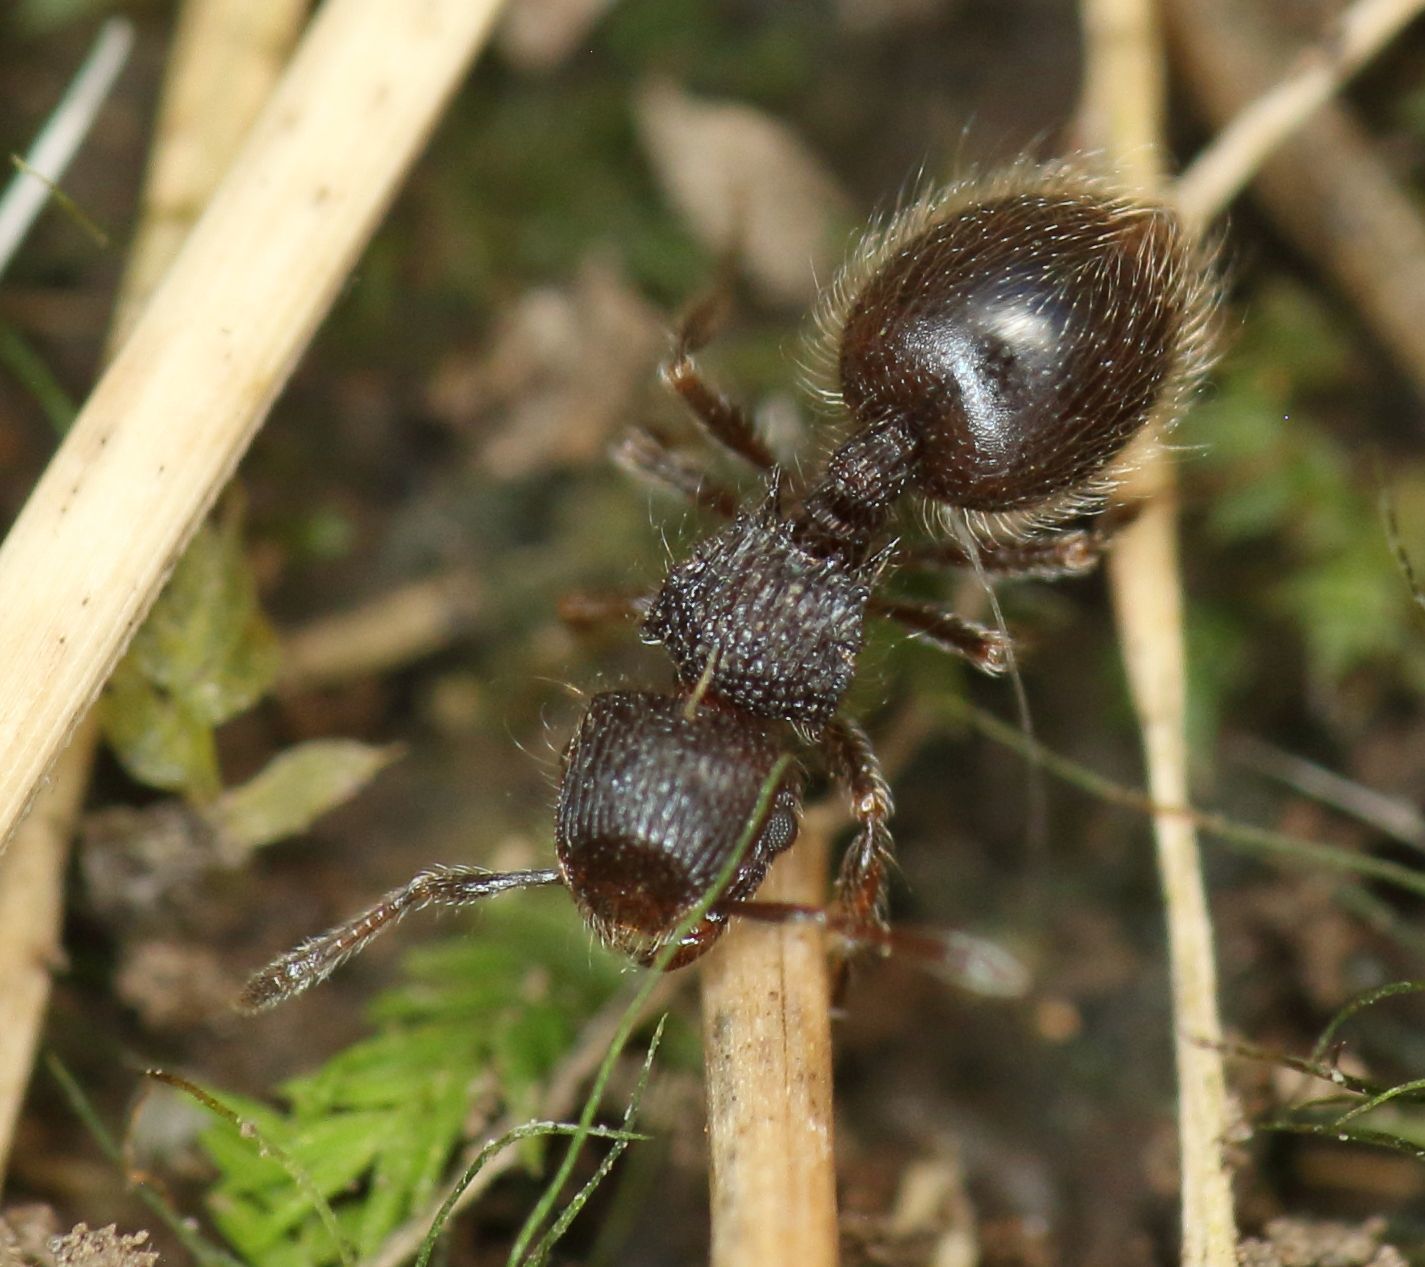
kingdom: Animalia
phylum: Arthropoda
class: Insecta
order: Hymenoptera
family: Formicidae
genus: Meranoplus
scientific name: Meranoplus peringueyi
